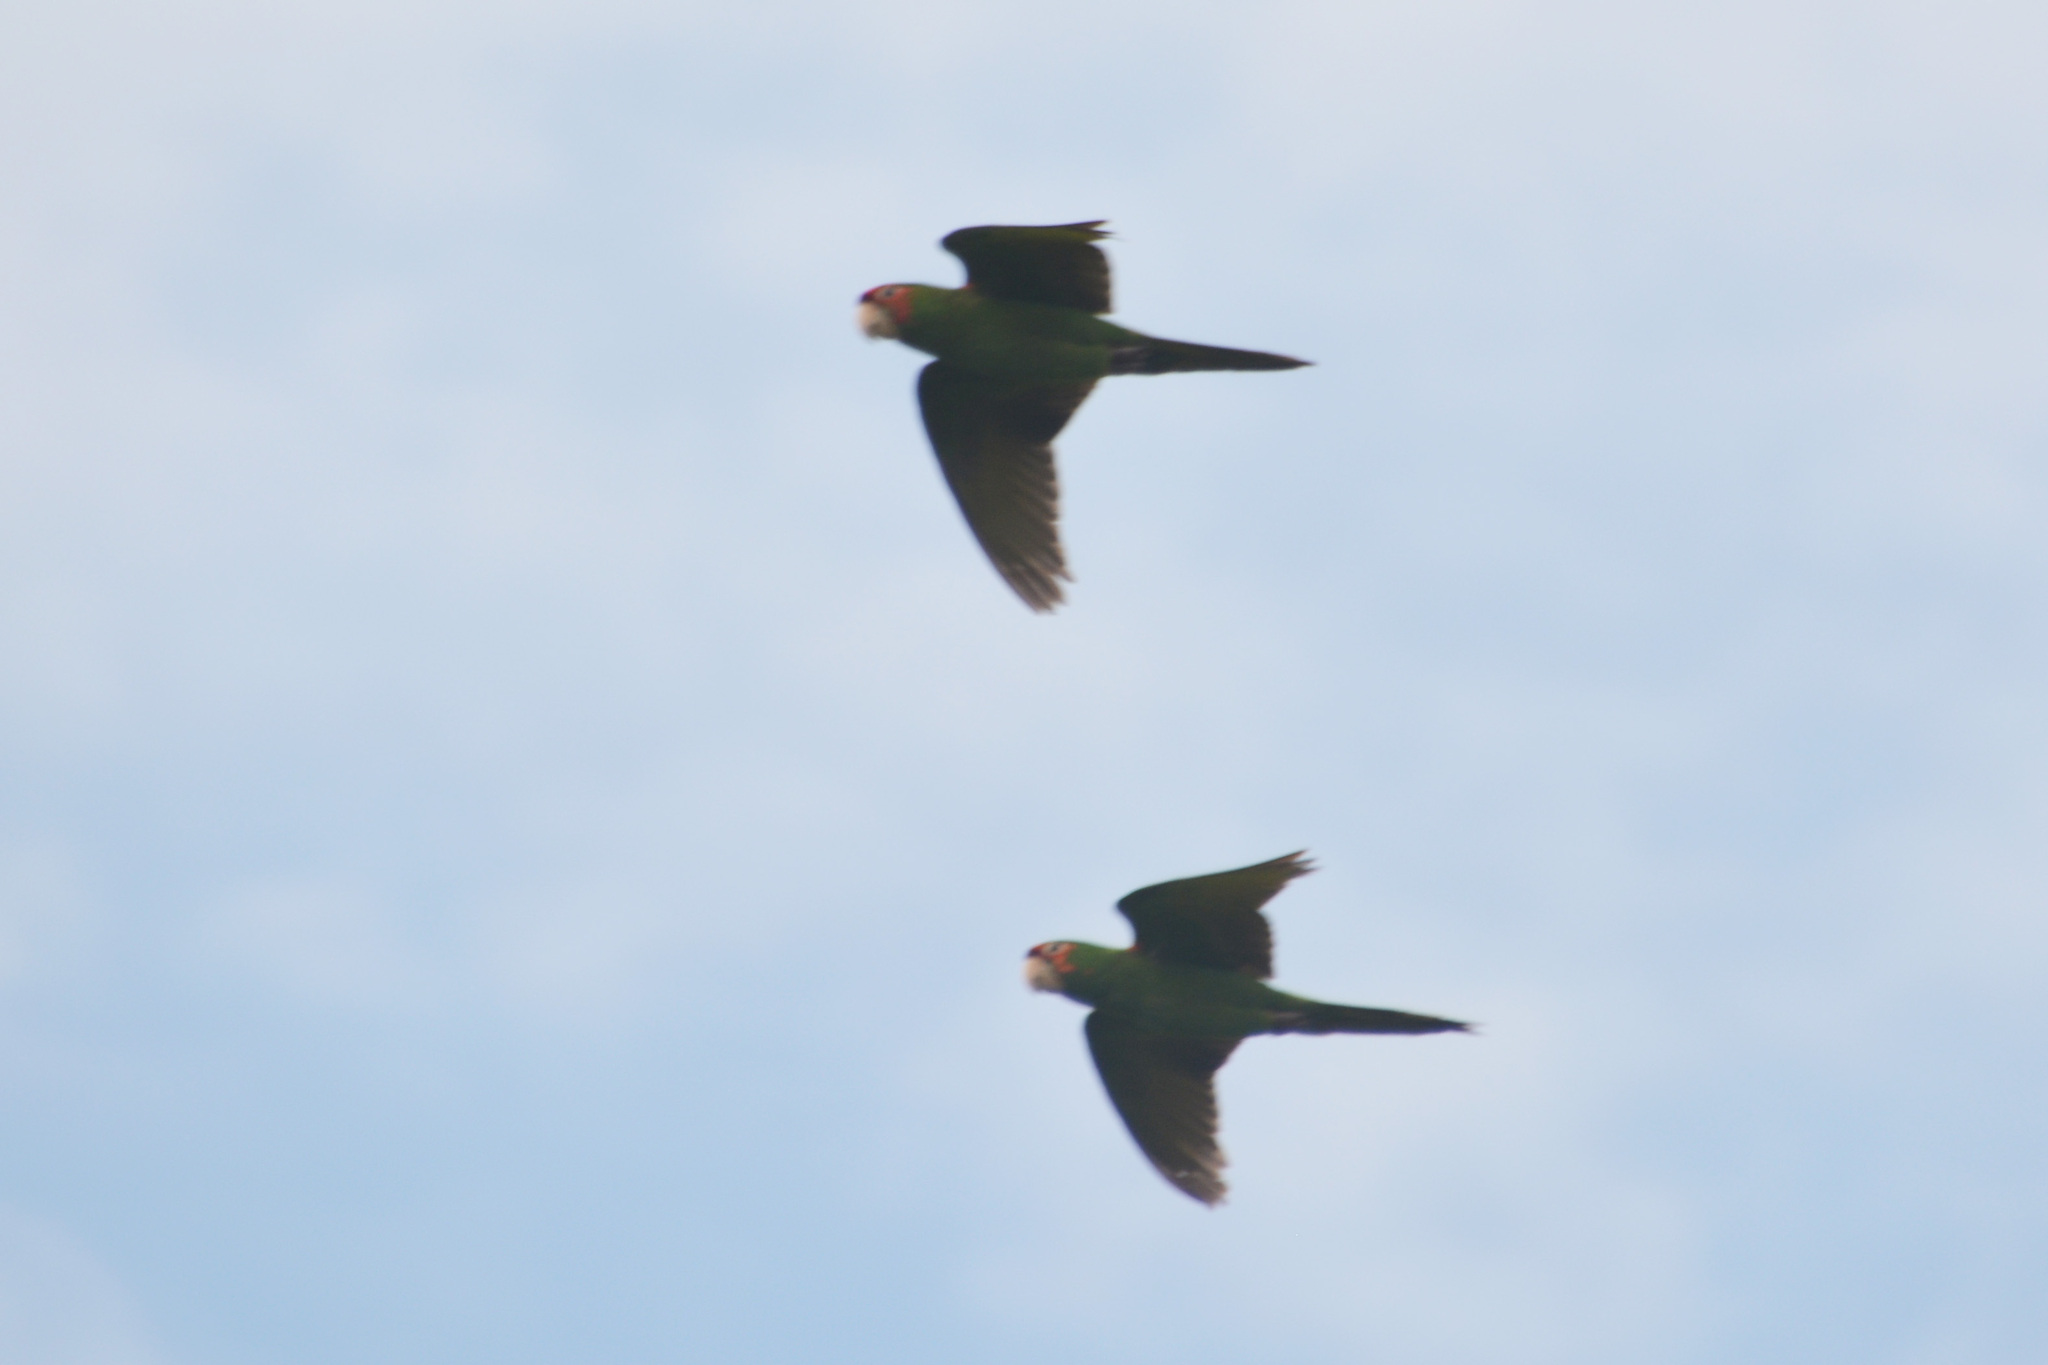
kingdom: Animalia
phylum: Chordata
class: Aves
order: Psittaciformes
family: Psittacidae
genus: Aratinga
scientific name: Aratinga mitrata
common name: Mitred parakeet
